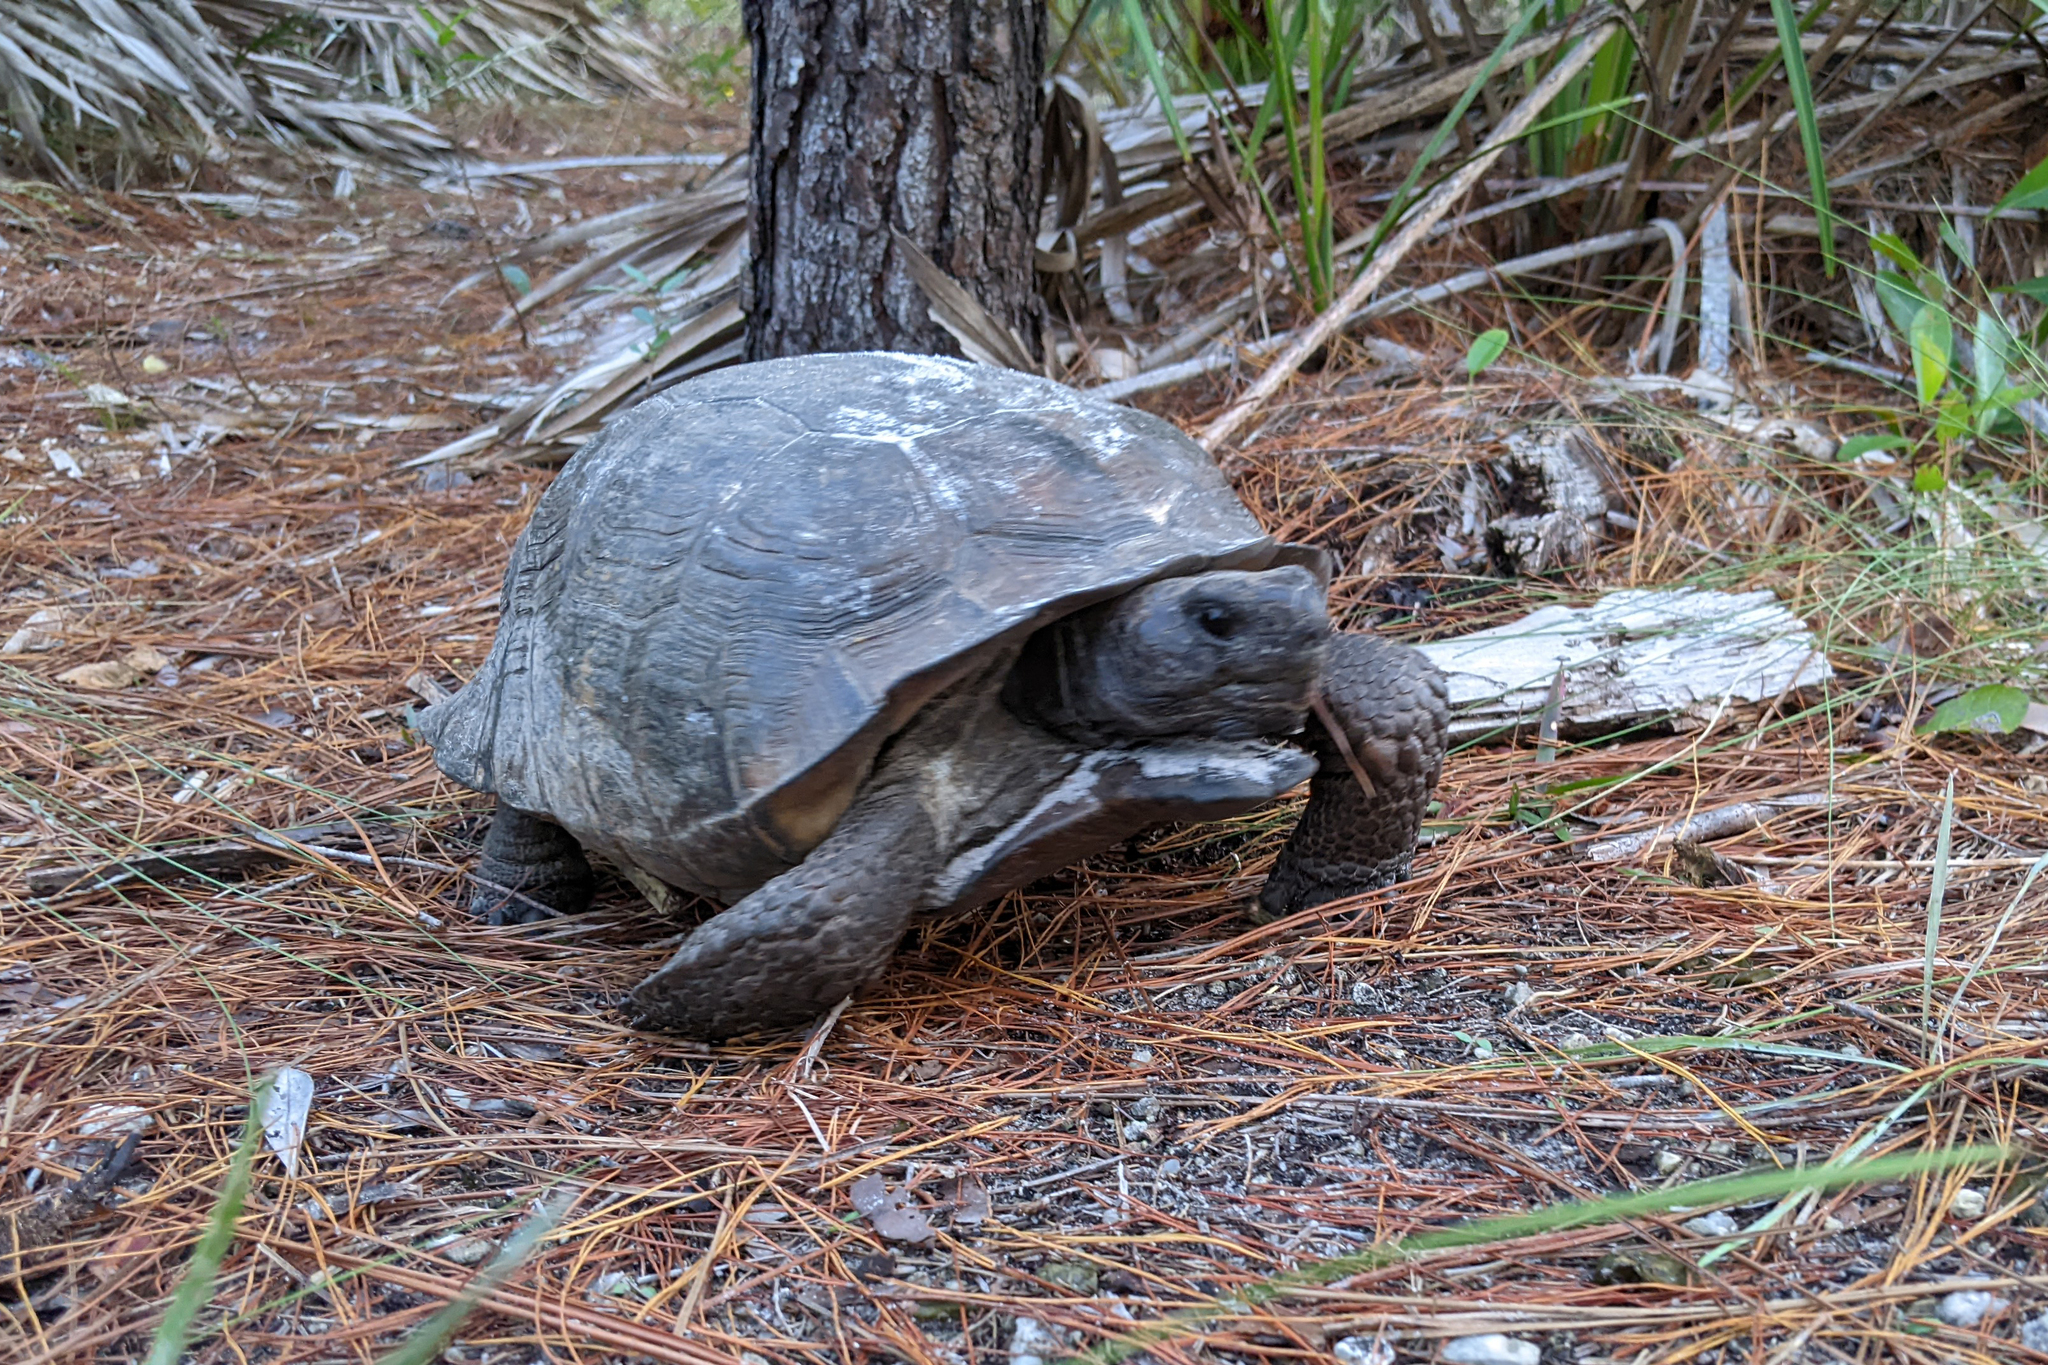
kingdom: Animalia
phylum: Chordata
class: Testudines
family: Testudinidae
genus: Gopherus
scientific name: Gopherus polyphemus
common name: Florida gopher tortoise
